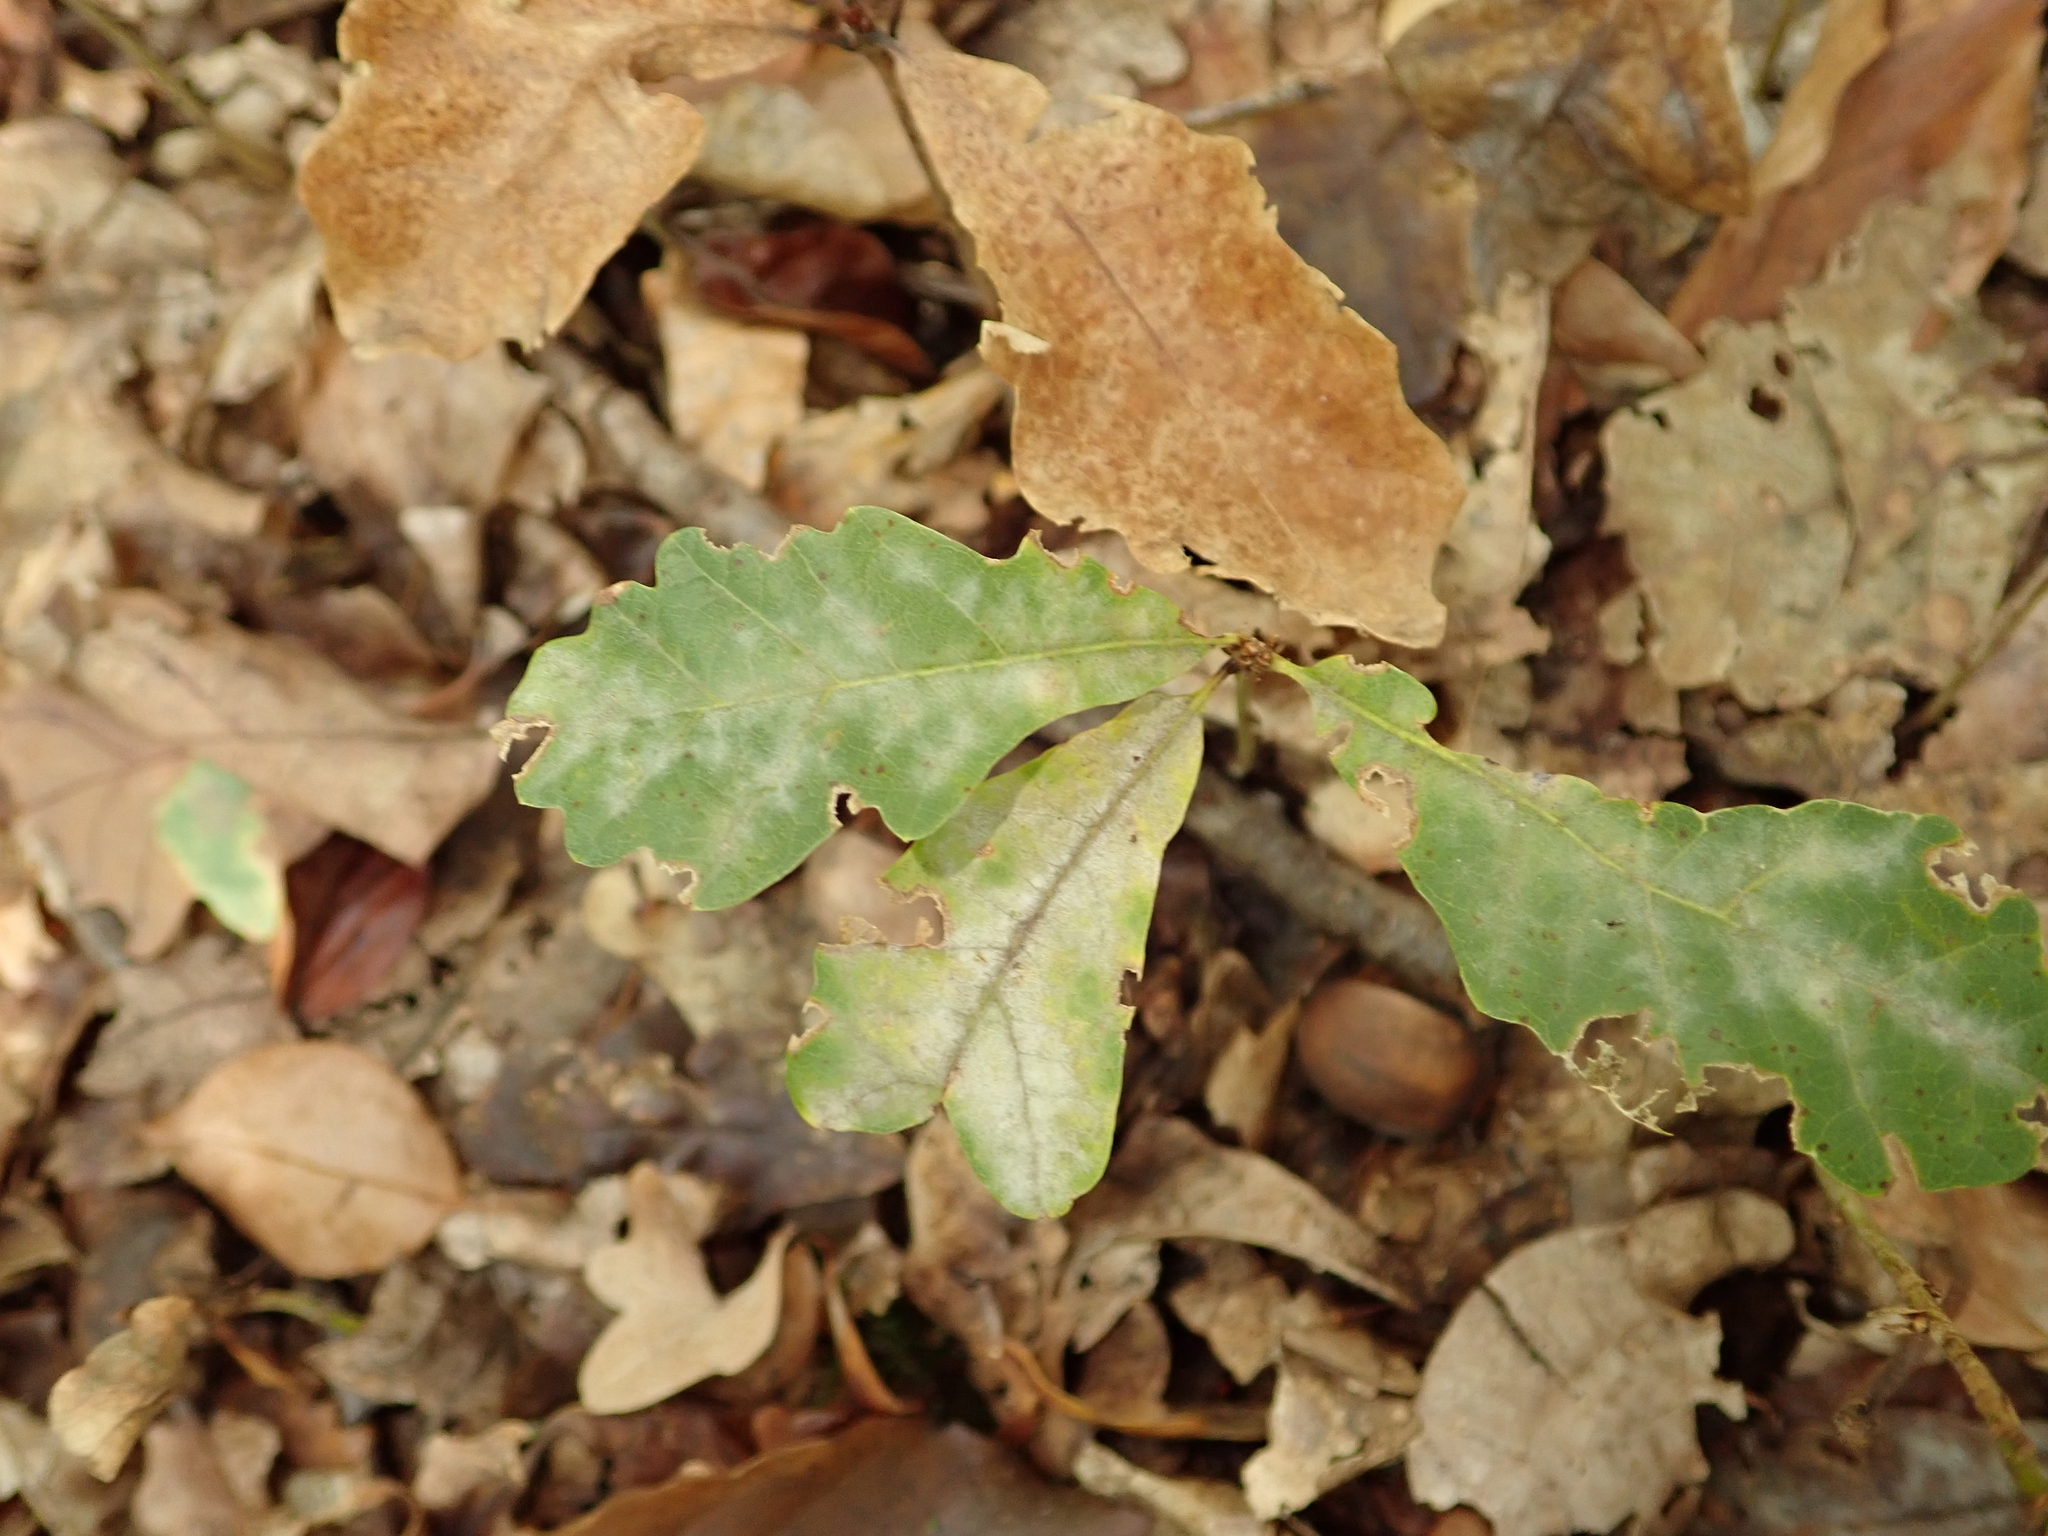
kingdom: Plantae
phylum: Tracheophyta
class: Magnoliopsida
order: Fagales
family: Fagaceae
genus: Quercus
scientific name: Quercus robur
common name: Pedunculate oak
